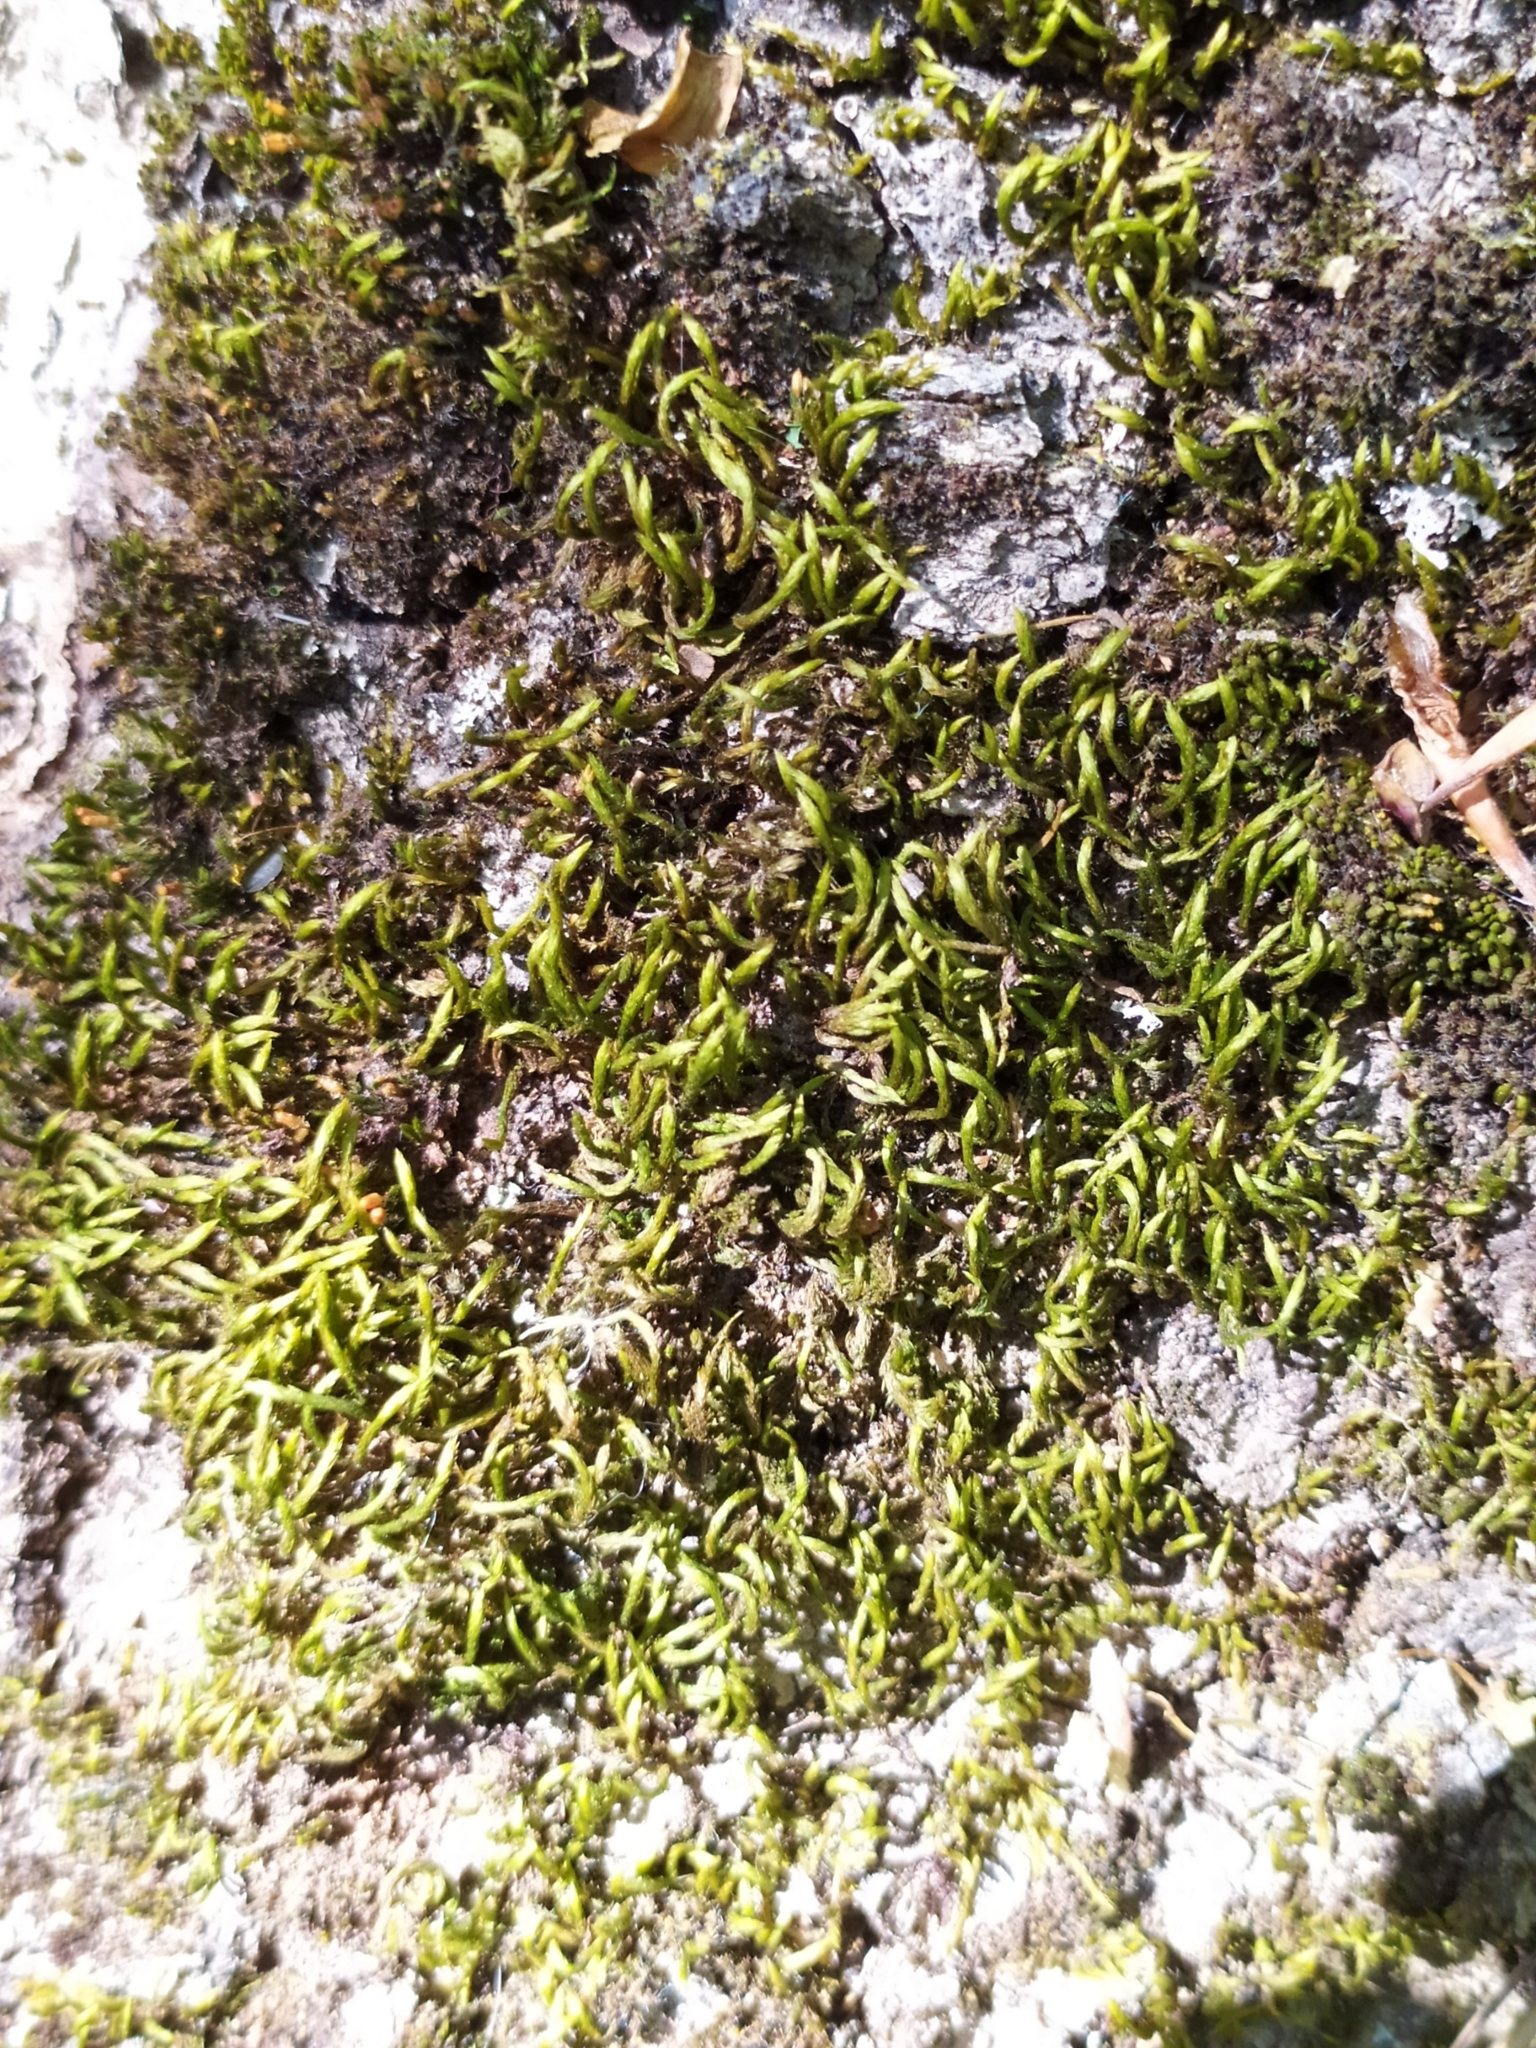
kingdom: Plantae
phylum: Bryophyta
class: Bryopsida
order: Hypnales
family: Leucodontaceae
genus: Leucodon
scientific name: Leucodon sciuroides
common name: Squirrel-tail moss
